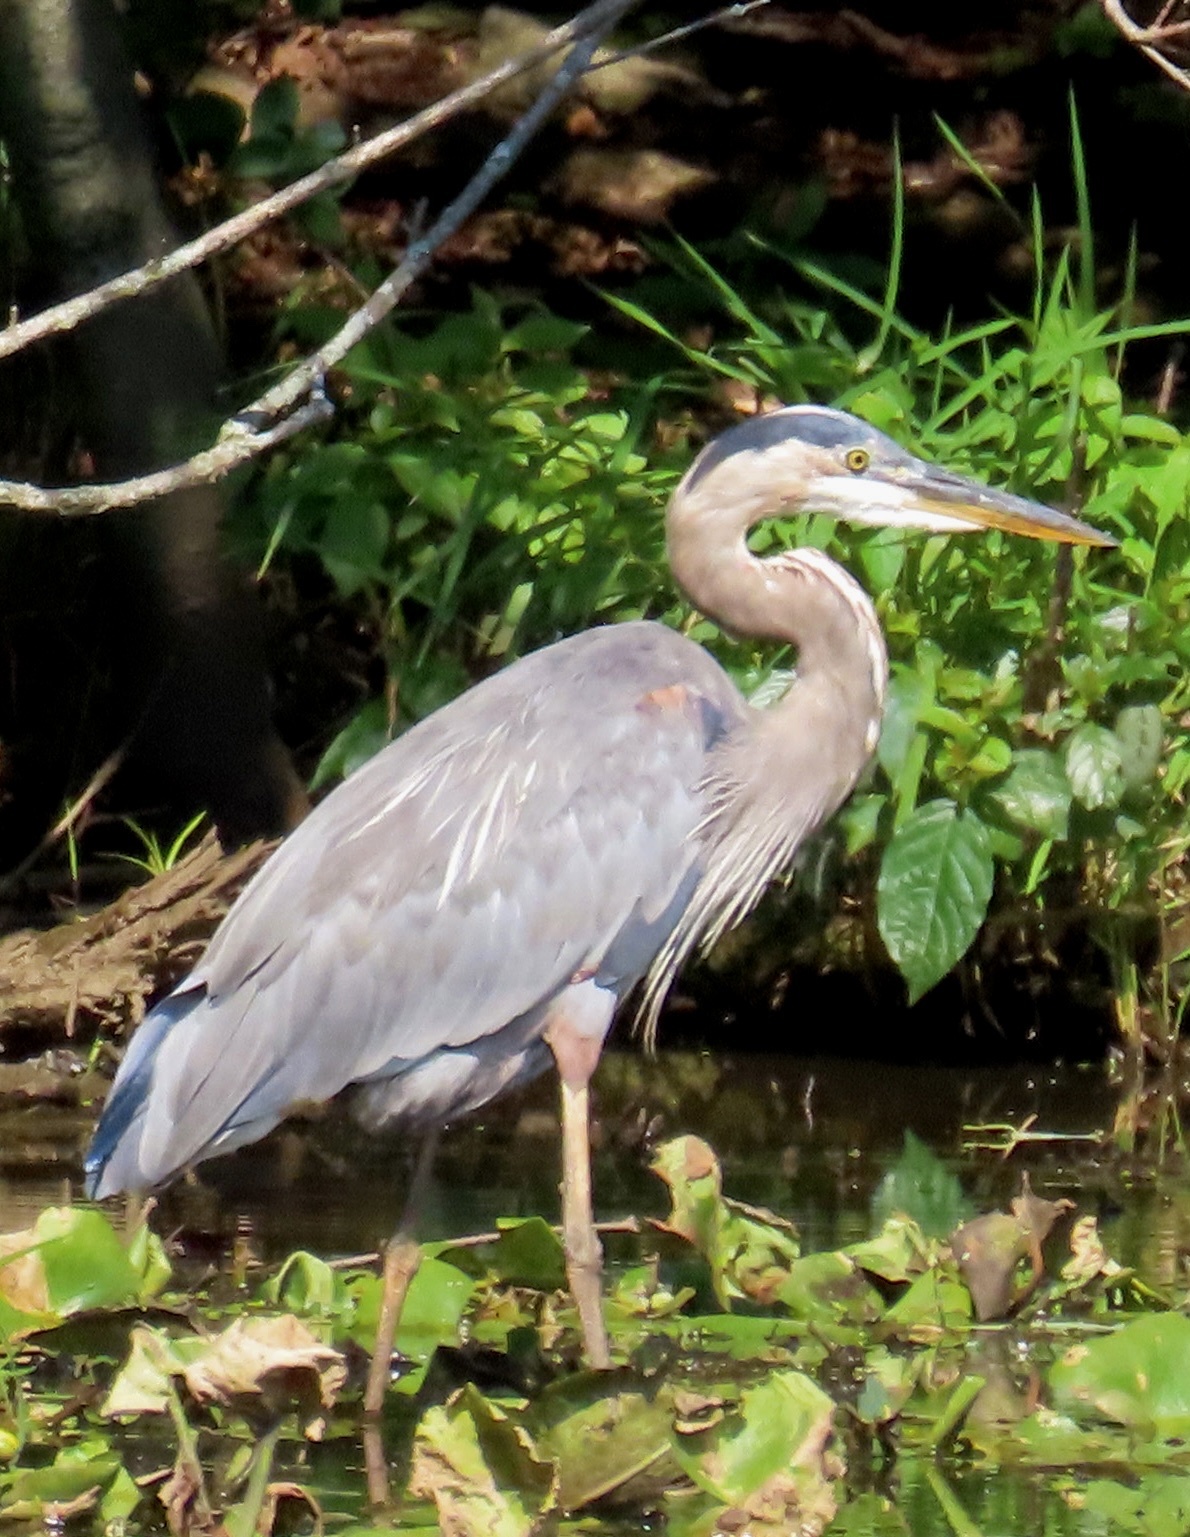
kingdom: Animalia
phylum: Chordata
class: Aves
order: Pelecaniformes
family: Ardeidae
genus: Ardea
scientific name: Ardea herodias
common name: Great blue heron
